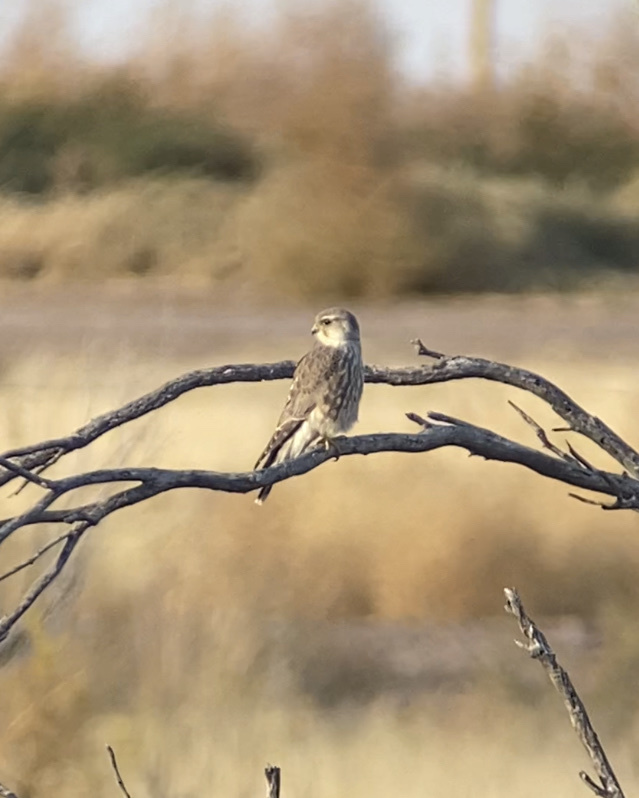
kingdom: Animalia
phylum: Chordata
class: Aves
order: Falconiformes
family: Falconidae
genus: Falco
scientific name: Falco columbarius
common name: Merlin
